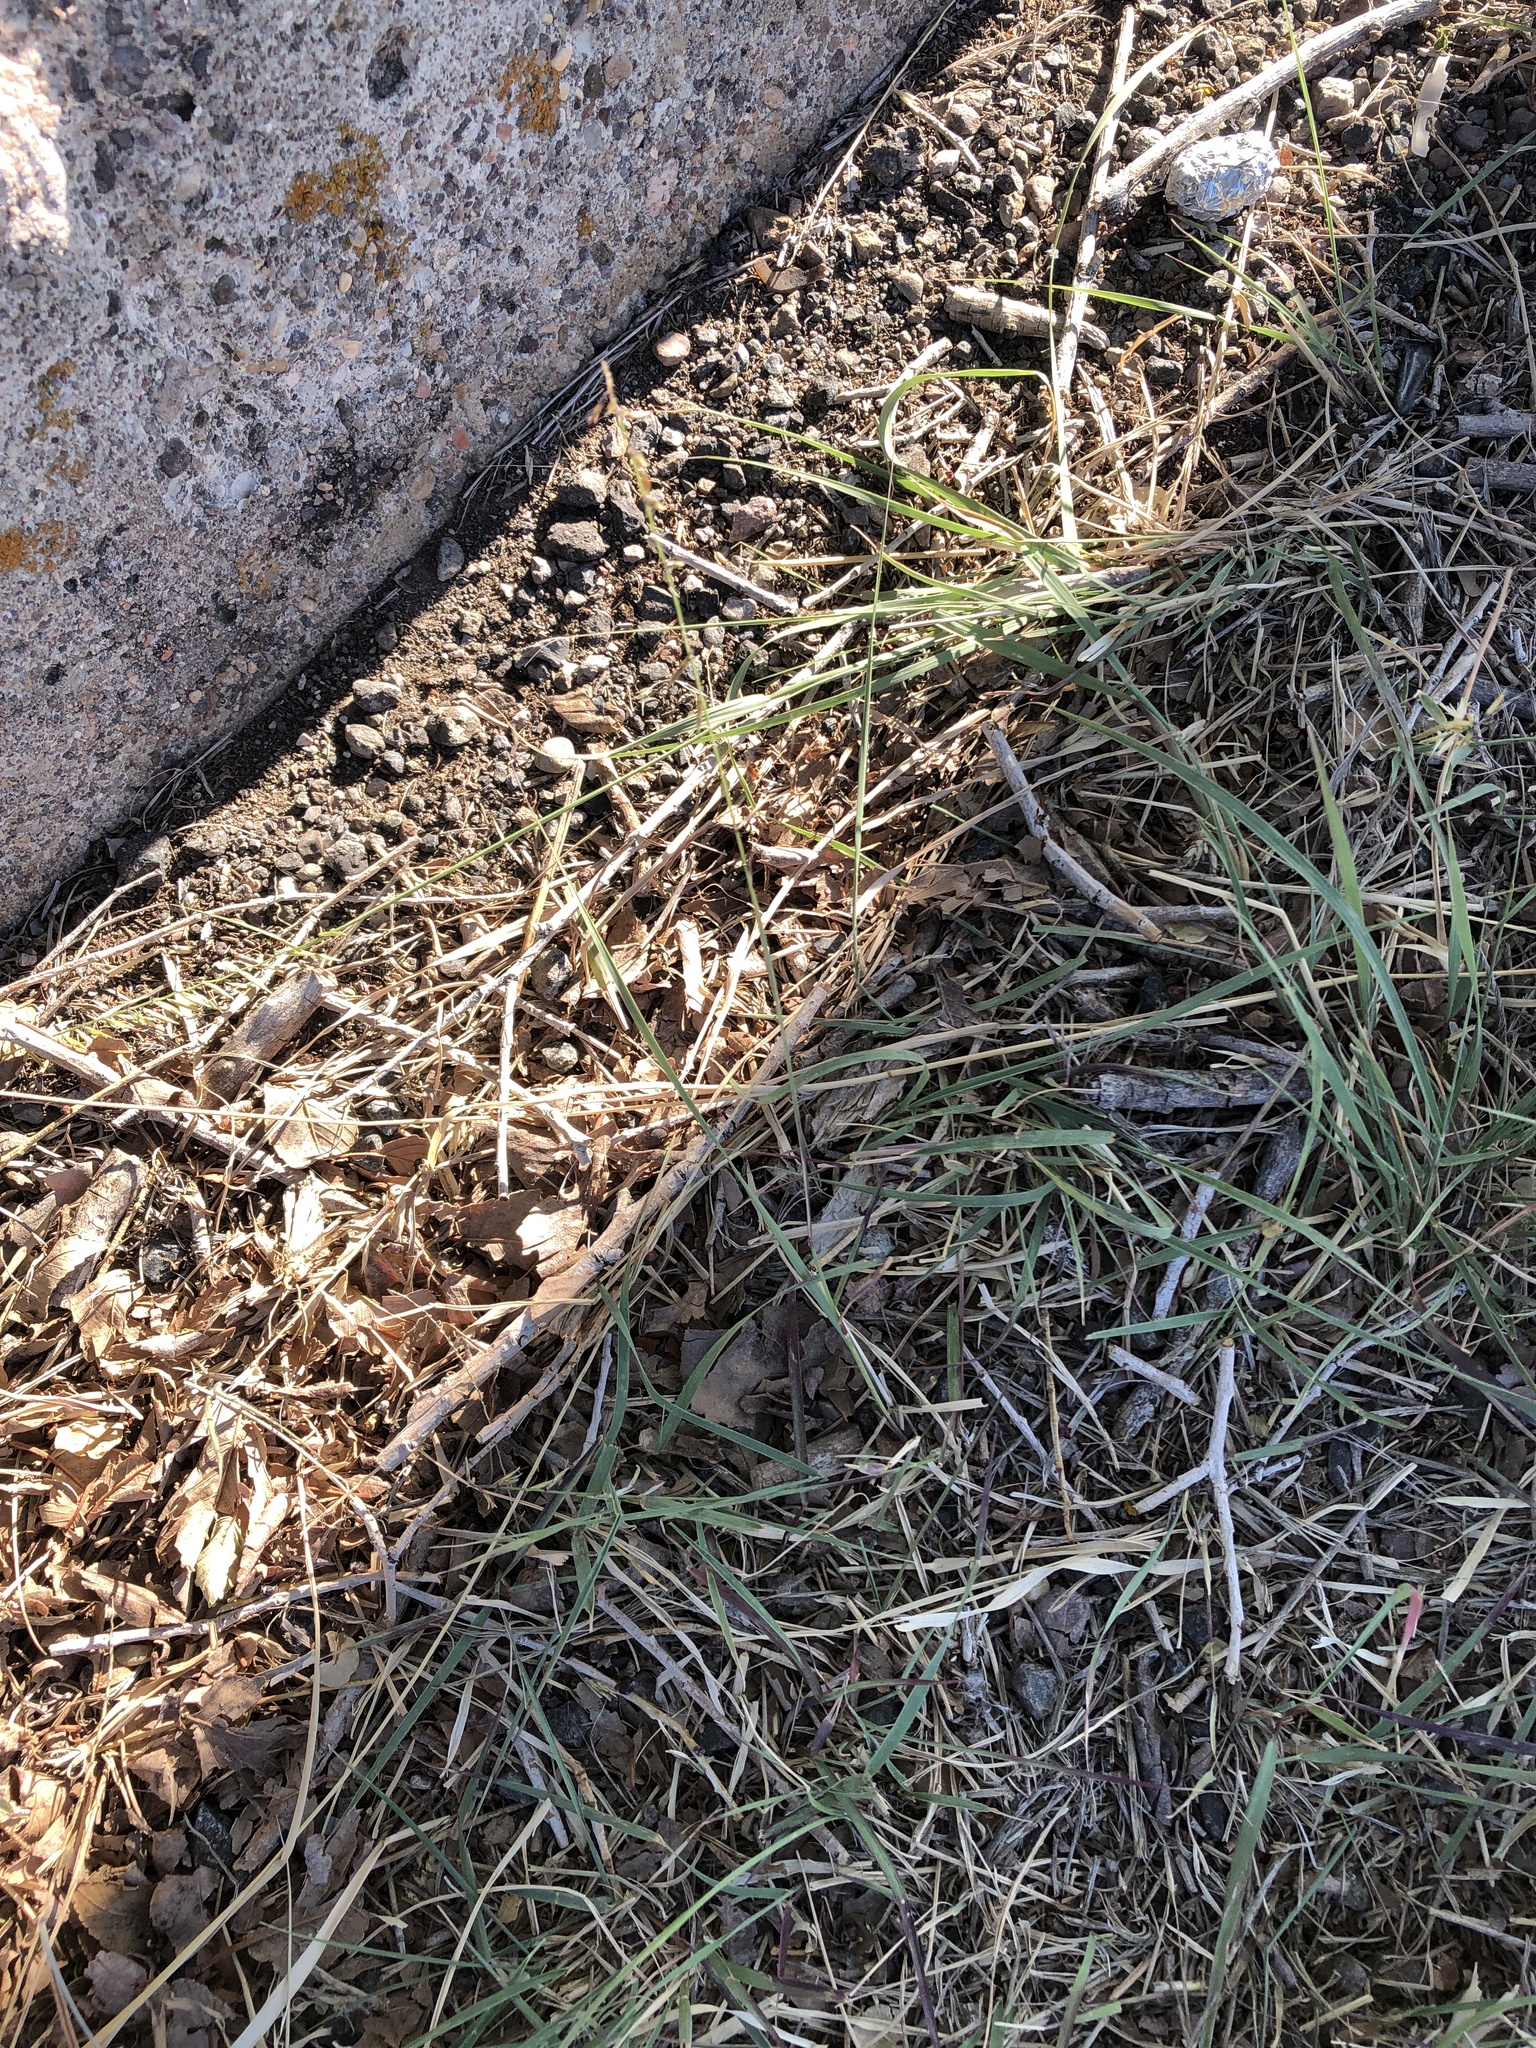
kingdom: Plantae
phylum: Tracheophyta
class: Liliopsida
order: Poales
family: Poaceae
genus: Bouteloua
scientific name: Bouteloua curtipendula
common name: Side-oats grama
